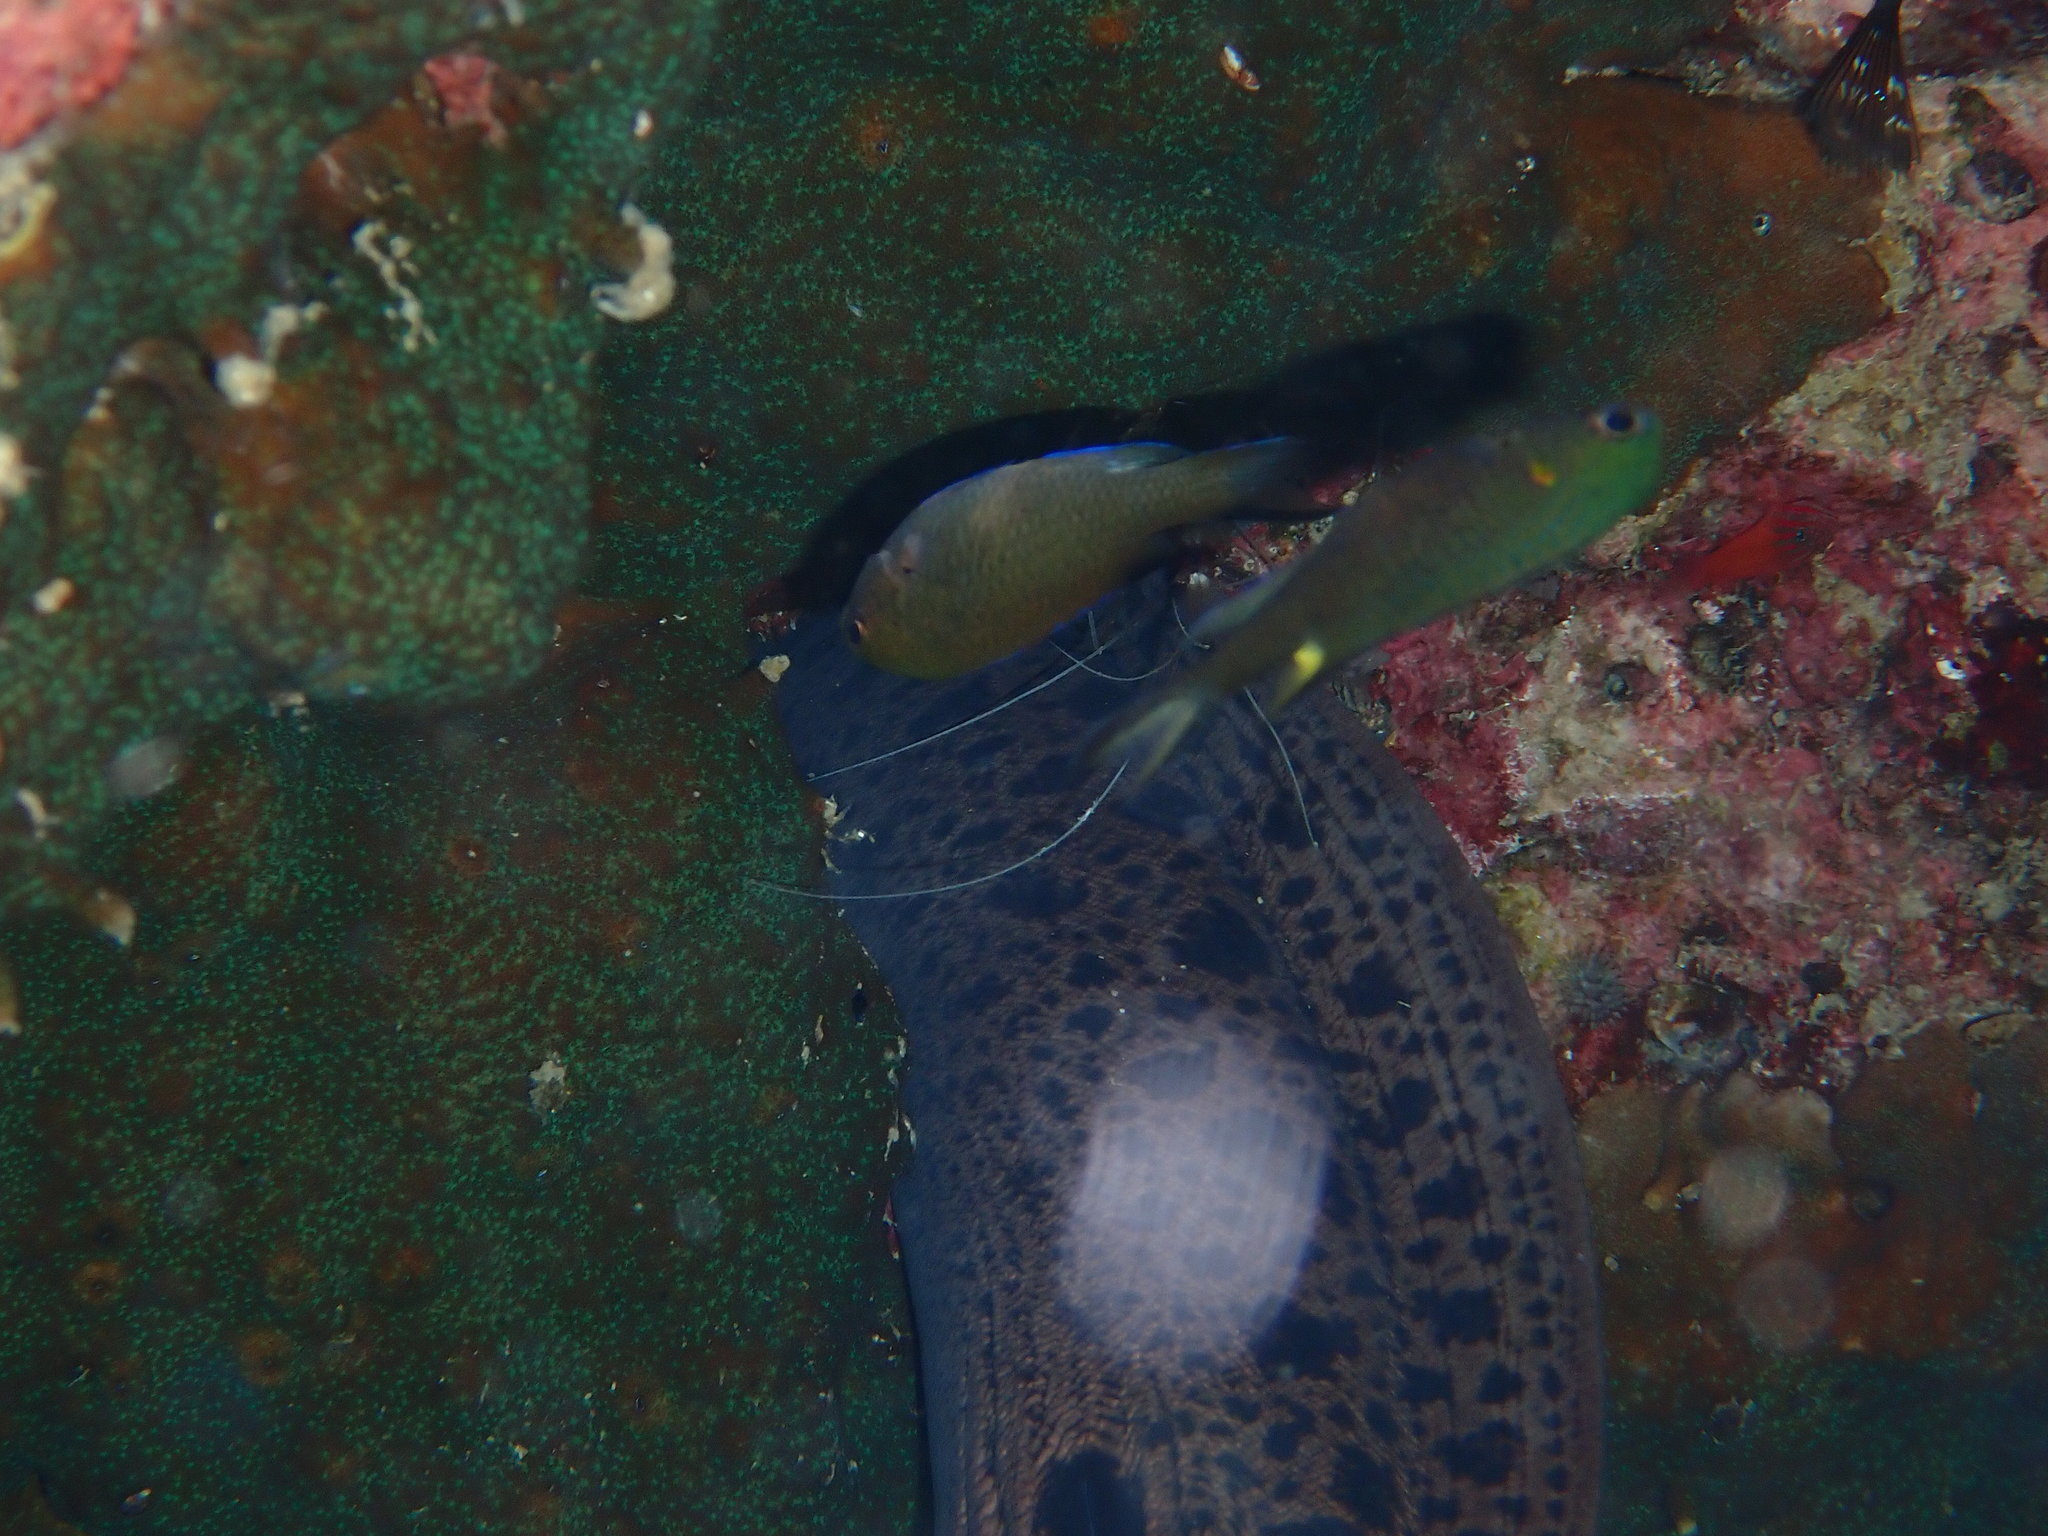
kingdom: Animalia
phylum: Chordata
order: Perciformes
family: Pomacentridae
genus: Neopomacentrus
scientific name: Neopomacentrus cyanomos
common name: Regal demoiselle
